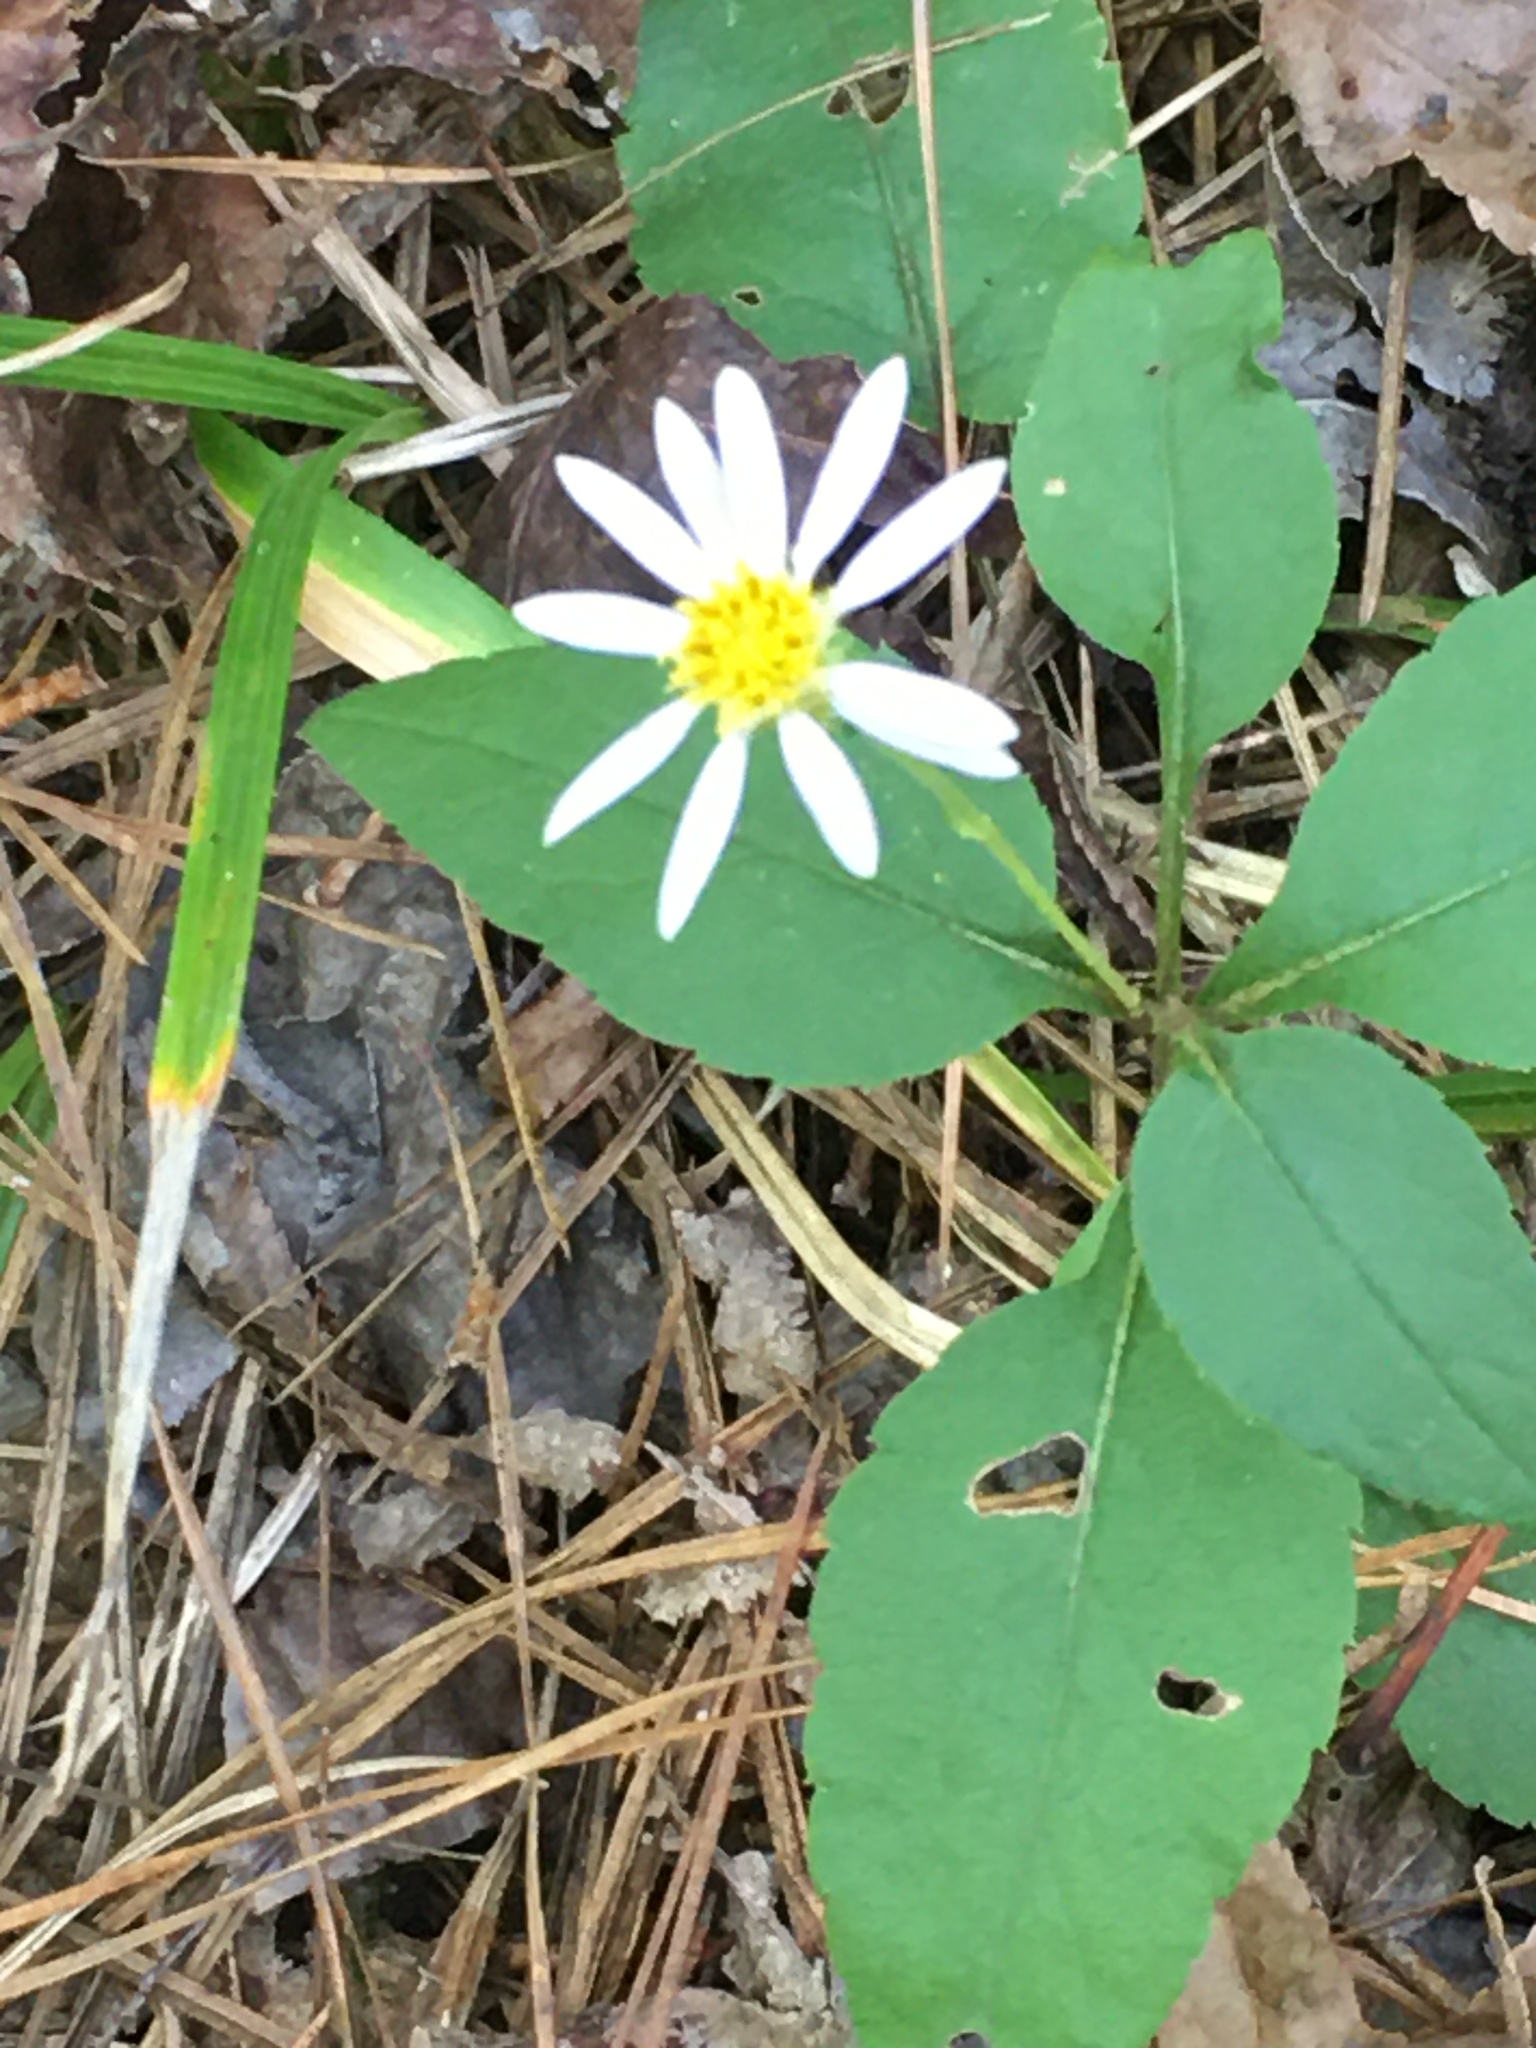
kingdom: Plantae
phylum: Tracheophyta
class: Magnoliopsida
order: Asterales
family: Asteraceae
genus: Eurybia
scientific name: Eurybia mirabilis
